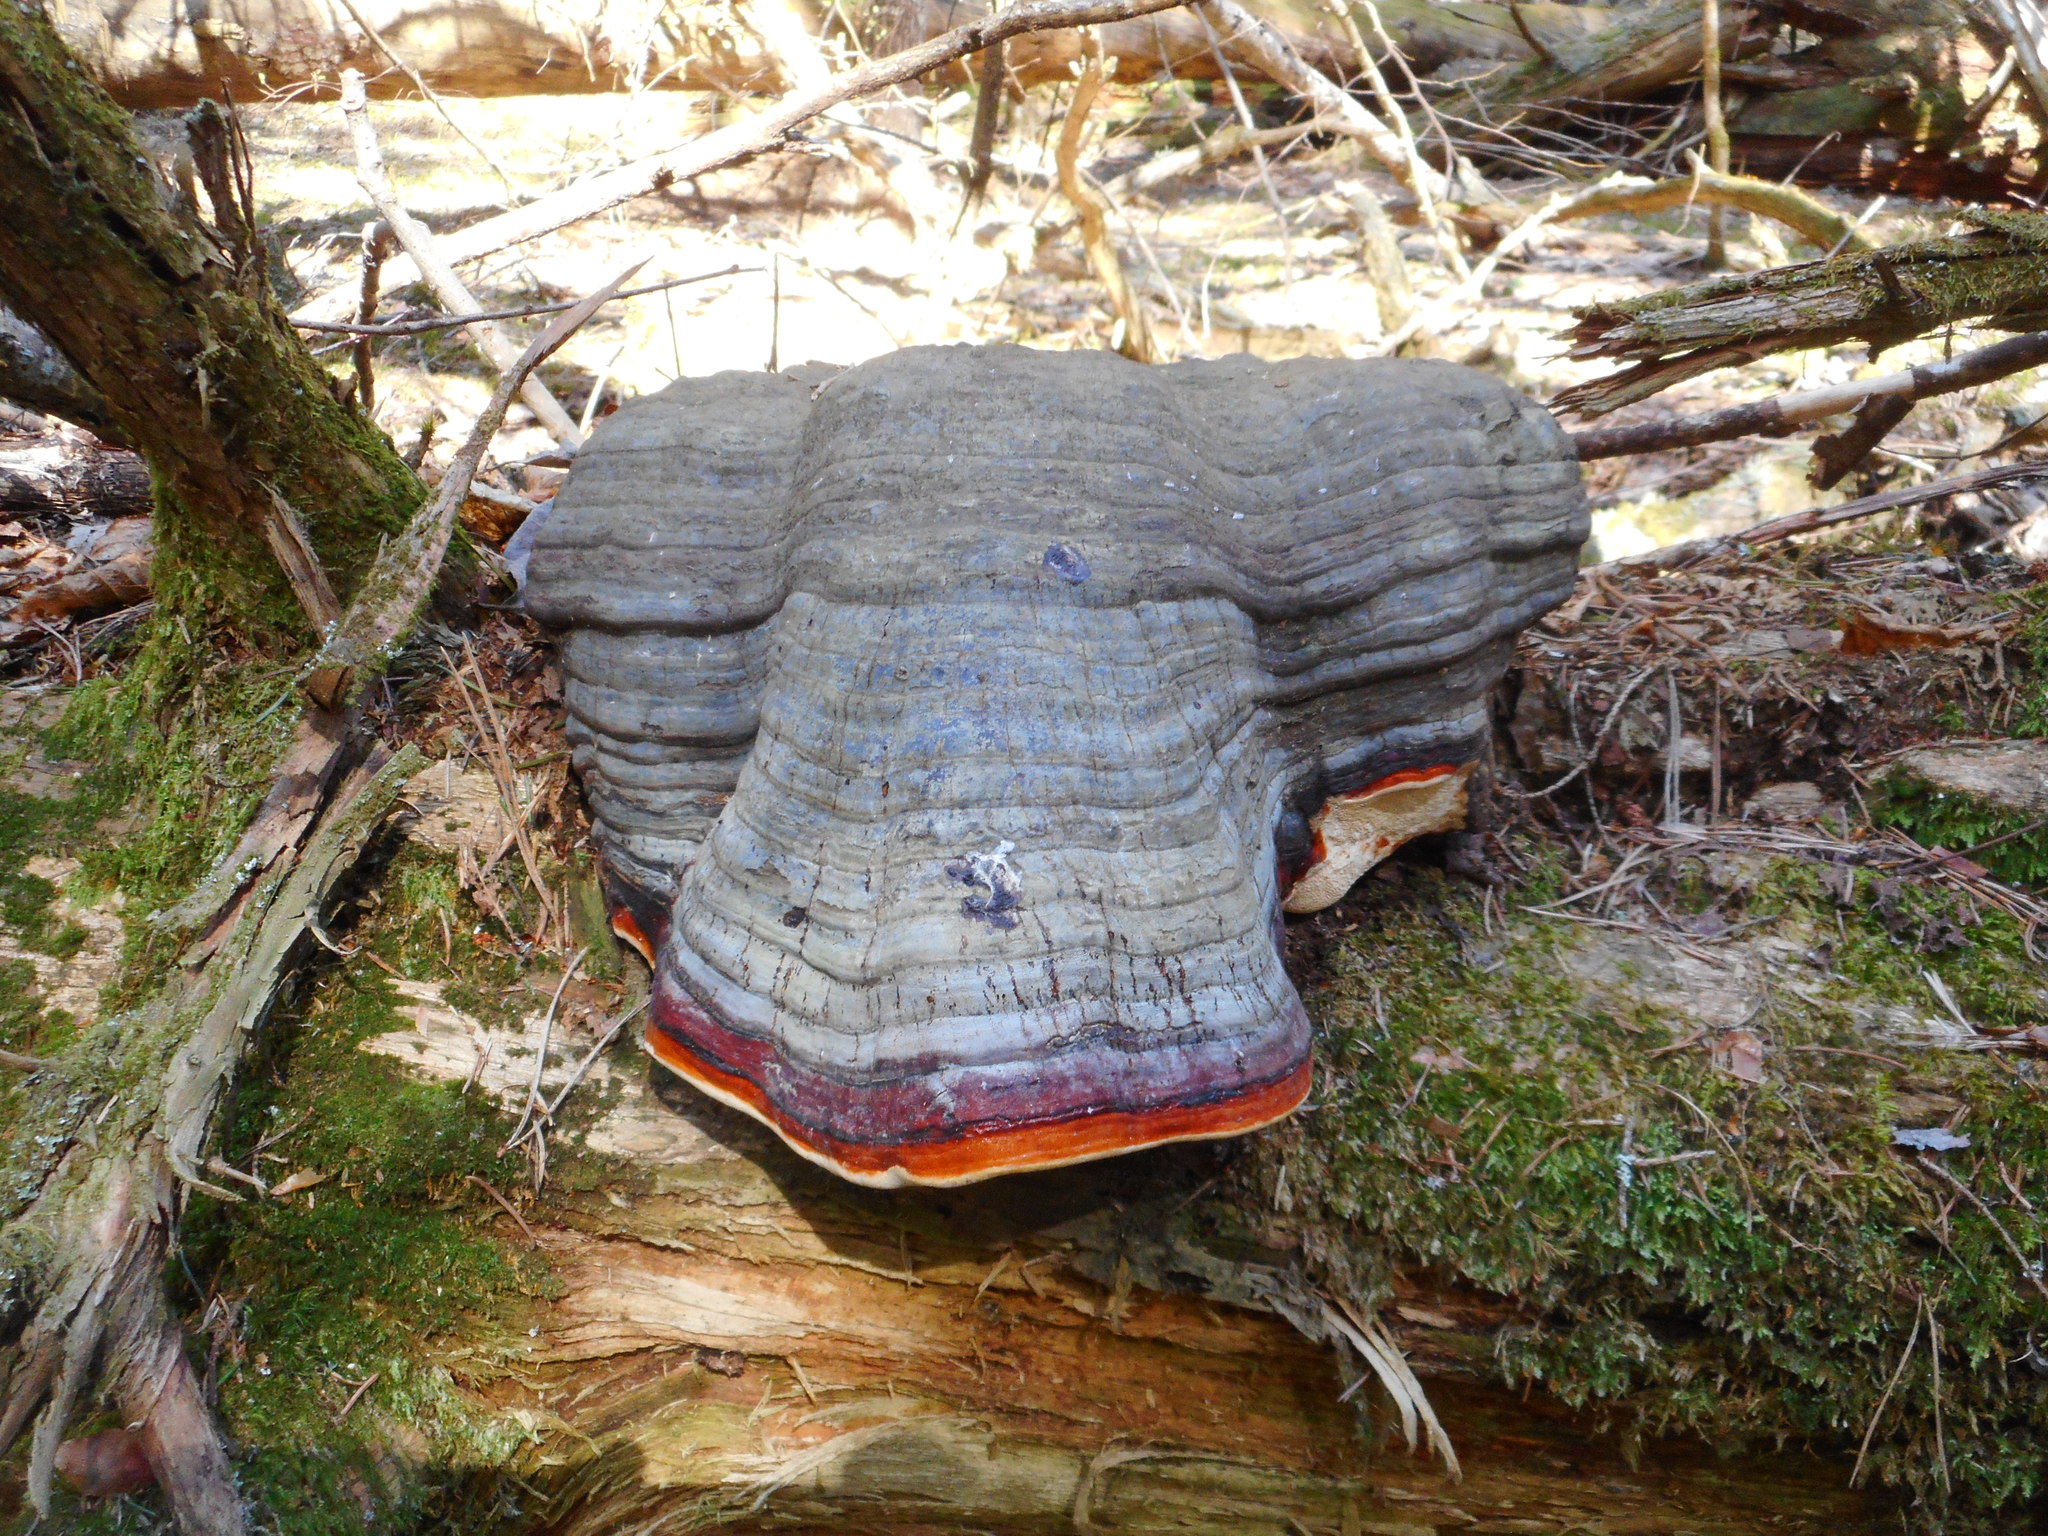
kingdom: Fungi
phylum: Basidiomycota
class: Agaricomycetes
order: Polyporales
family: Fomitopsidaceae
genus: Fomitopsis
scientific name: Fomitopsis pinicola
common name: Red-belted bracket
